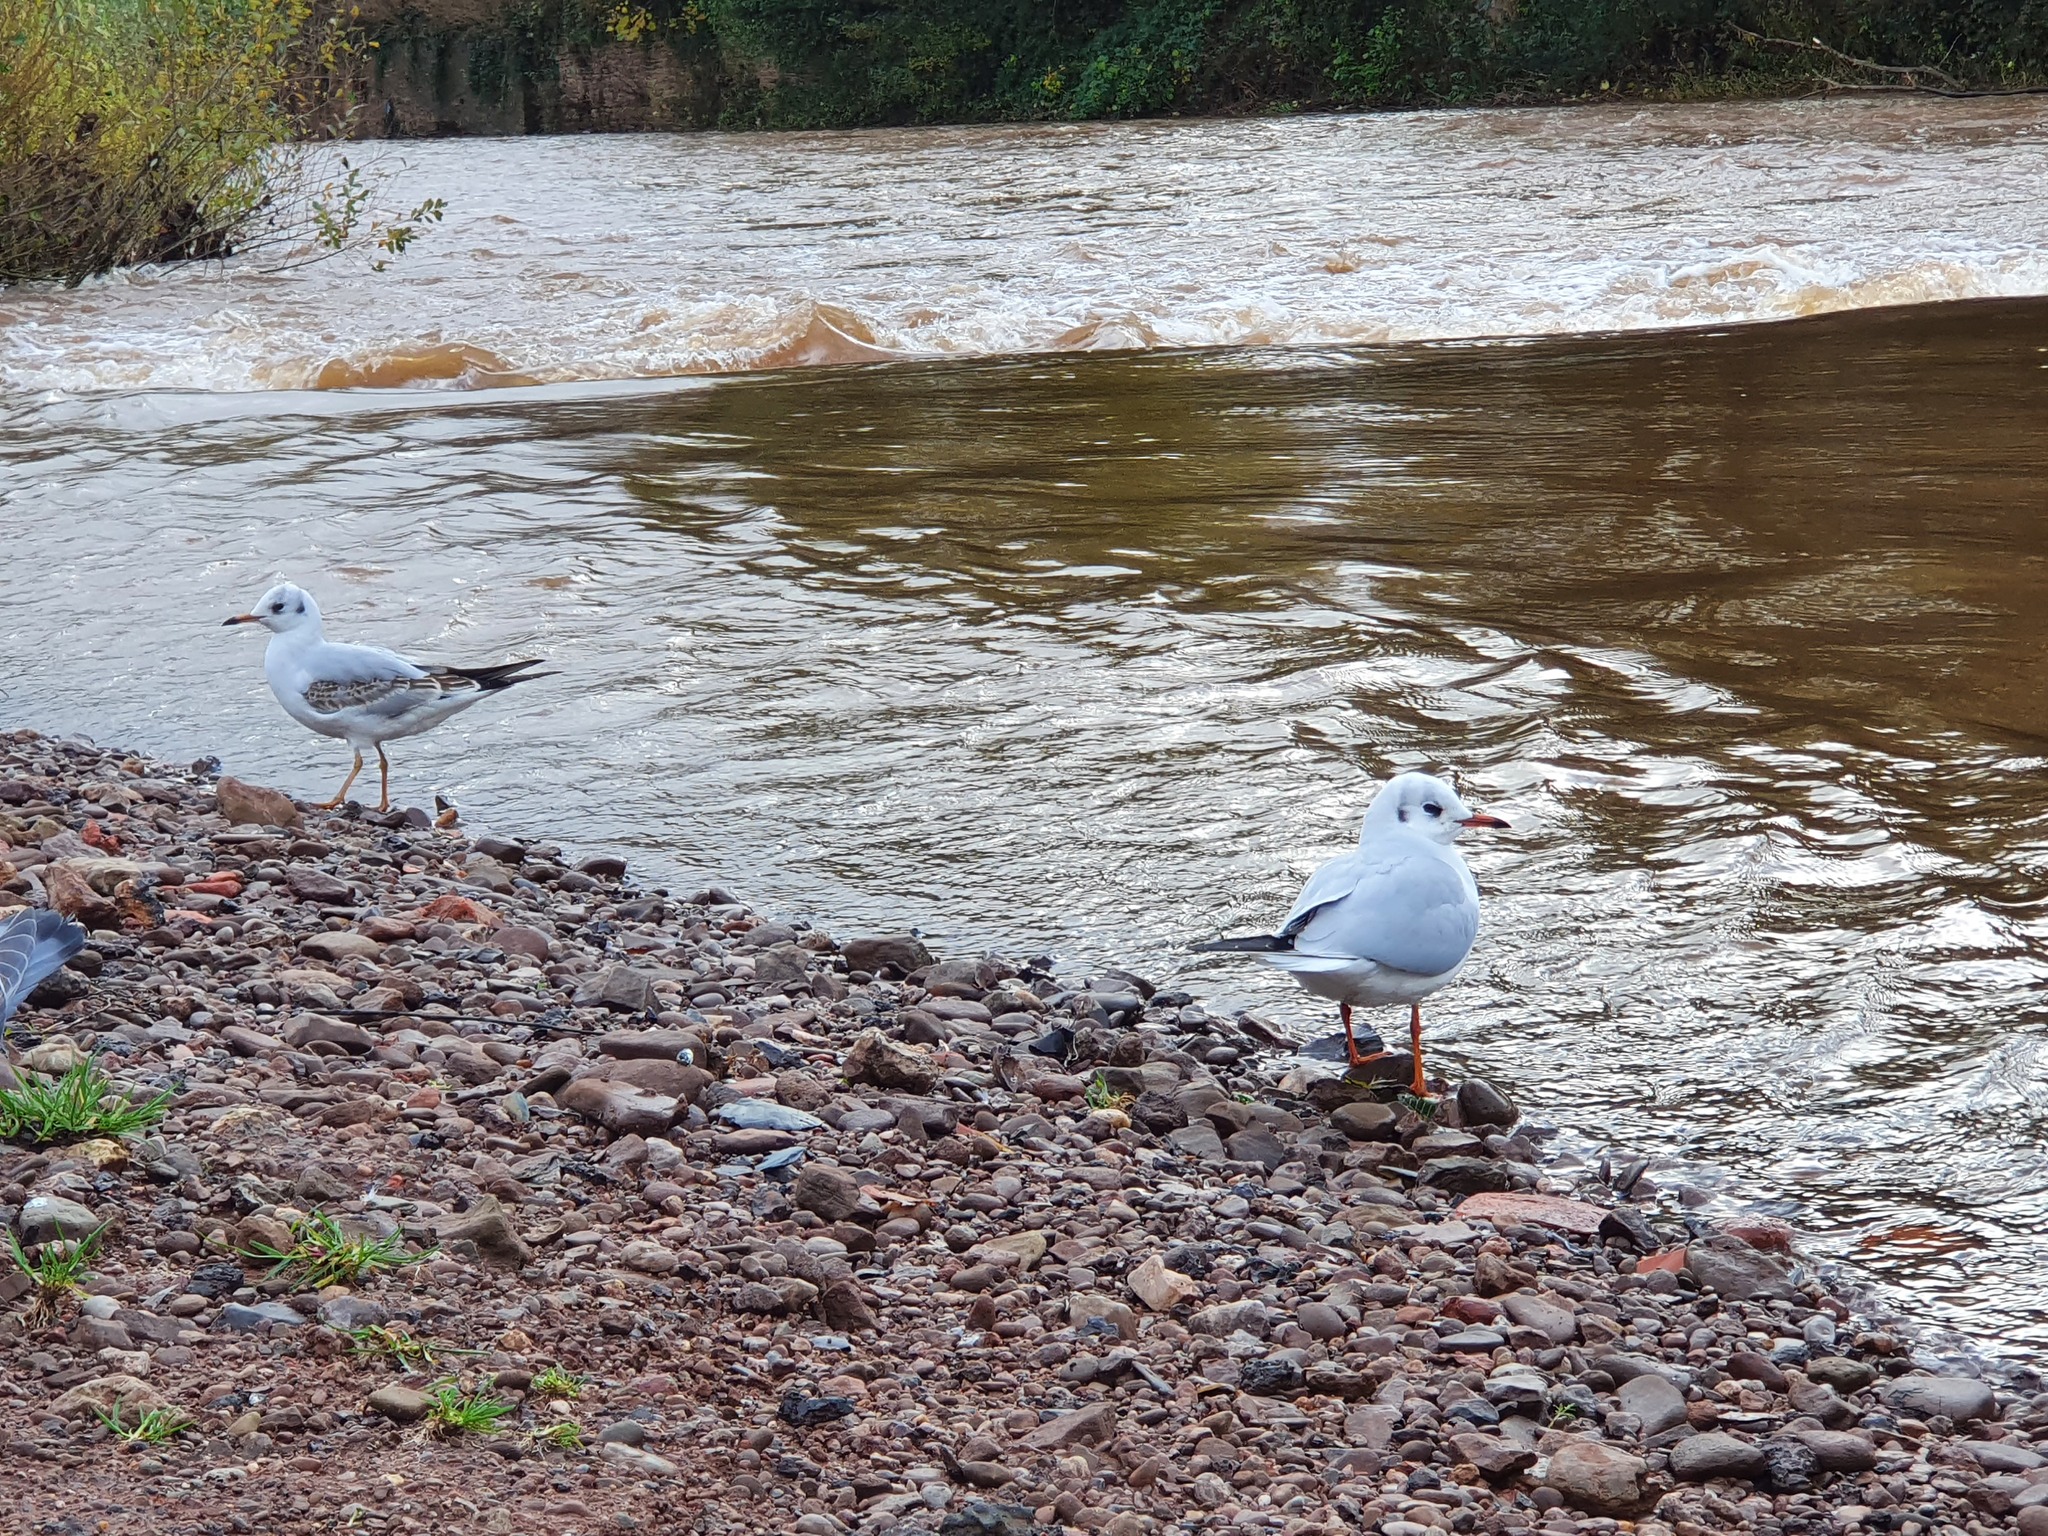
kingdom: Animalia
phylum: Chordata
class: Aves
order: Charadriiformes
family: Laridae
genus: Chroicocephalus
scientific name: Chroicocephalus ridibundus
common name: Black-headed gull
